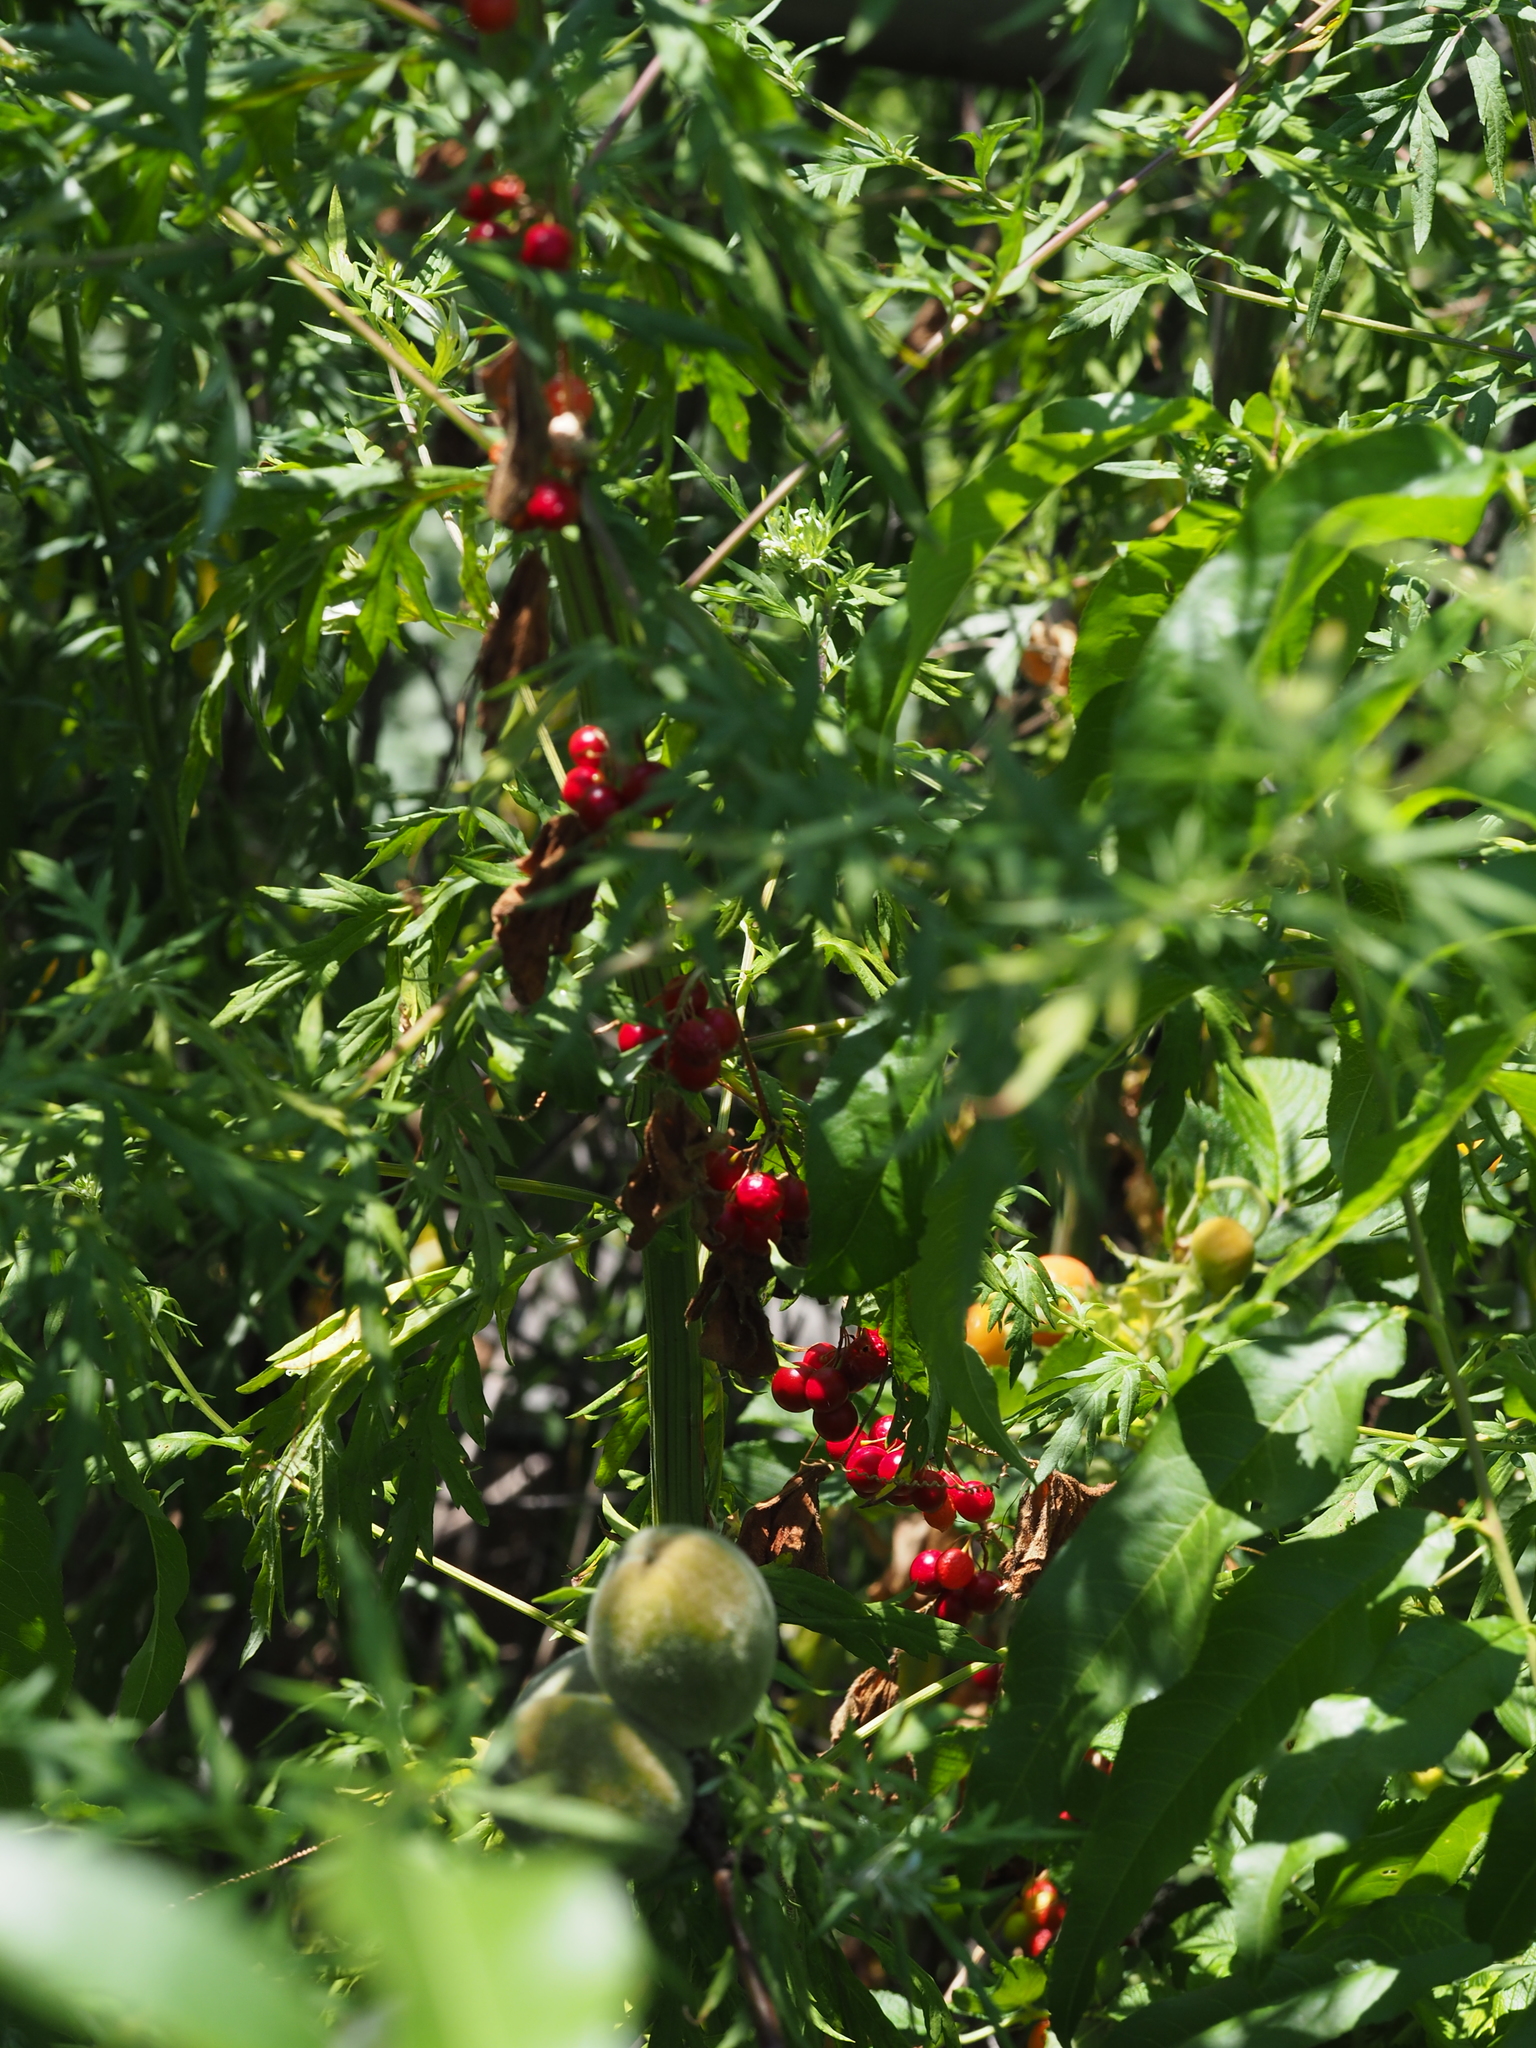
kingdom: Plantae
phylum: Tracheophyta
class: Magnoliopsida
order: Cucurbitales
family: Cucurbitaceae
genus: Bryonia
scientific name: Bryonia dioica
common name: White bryony
